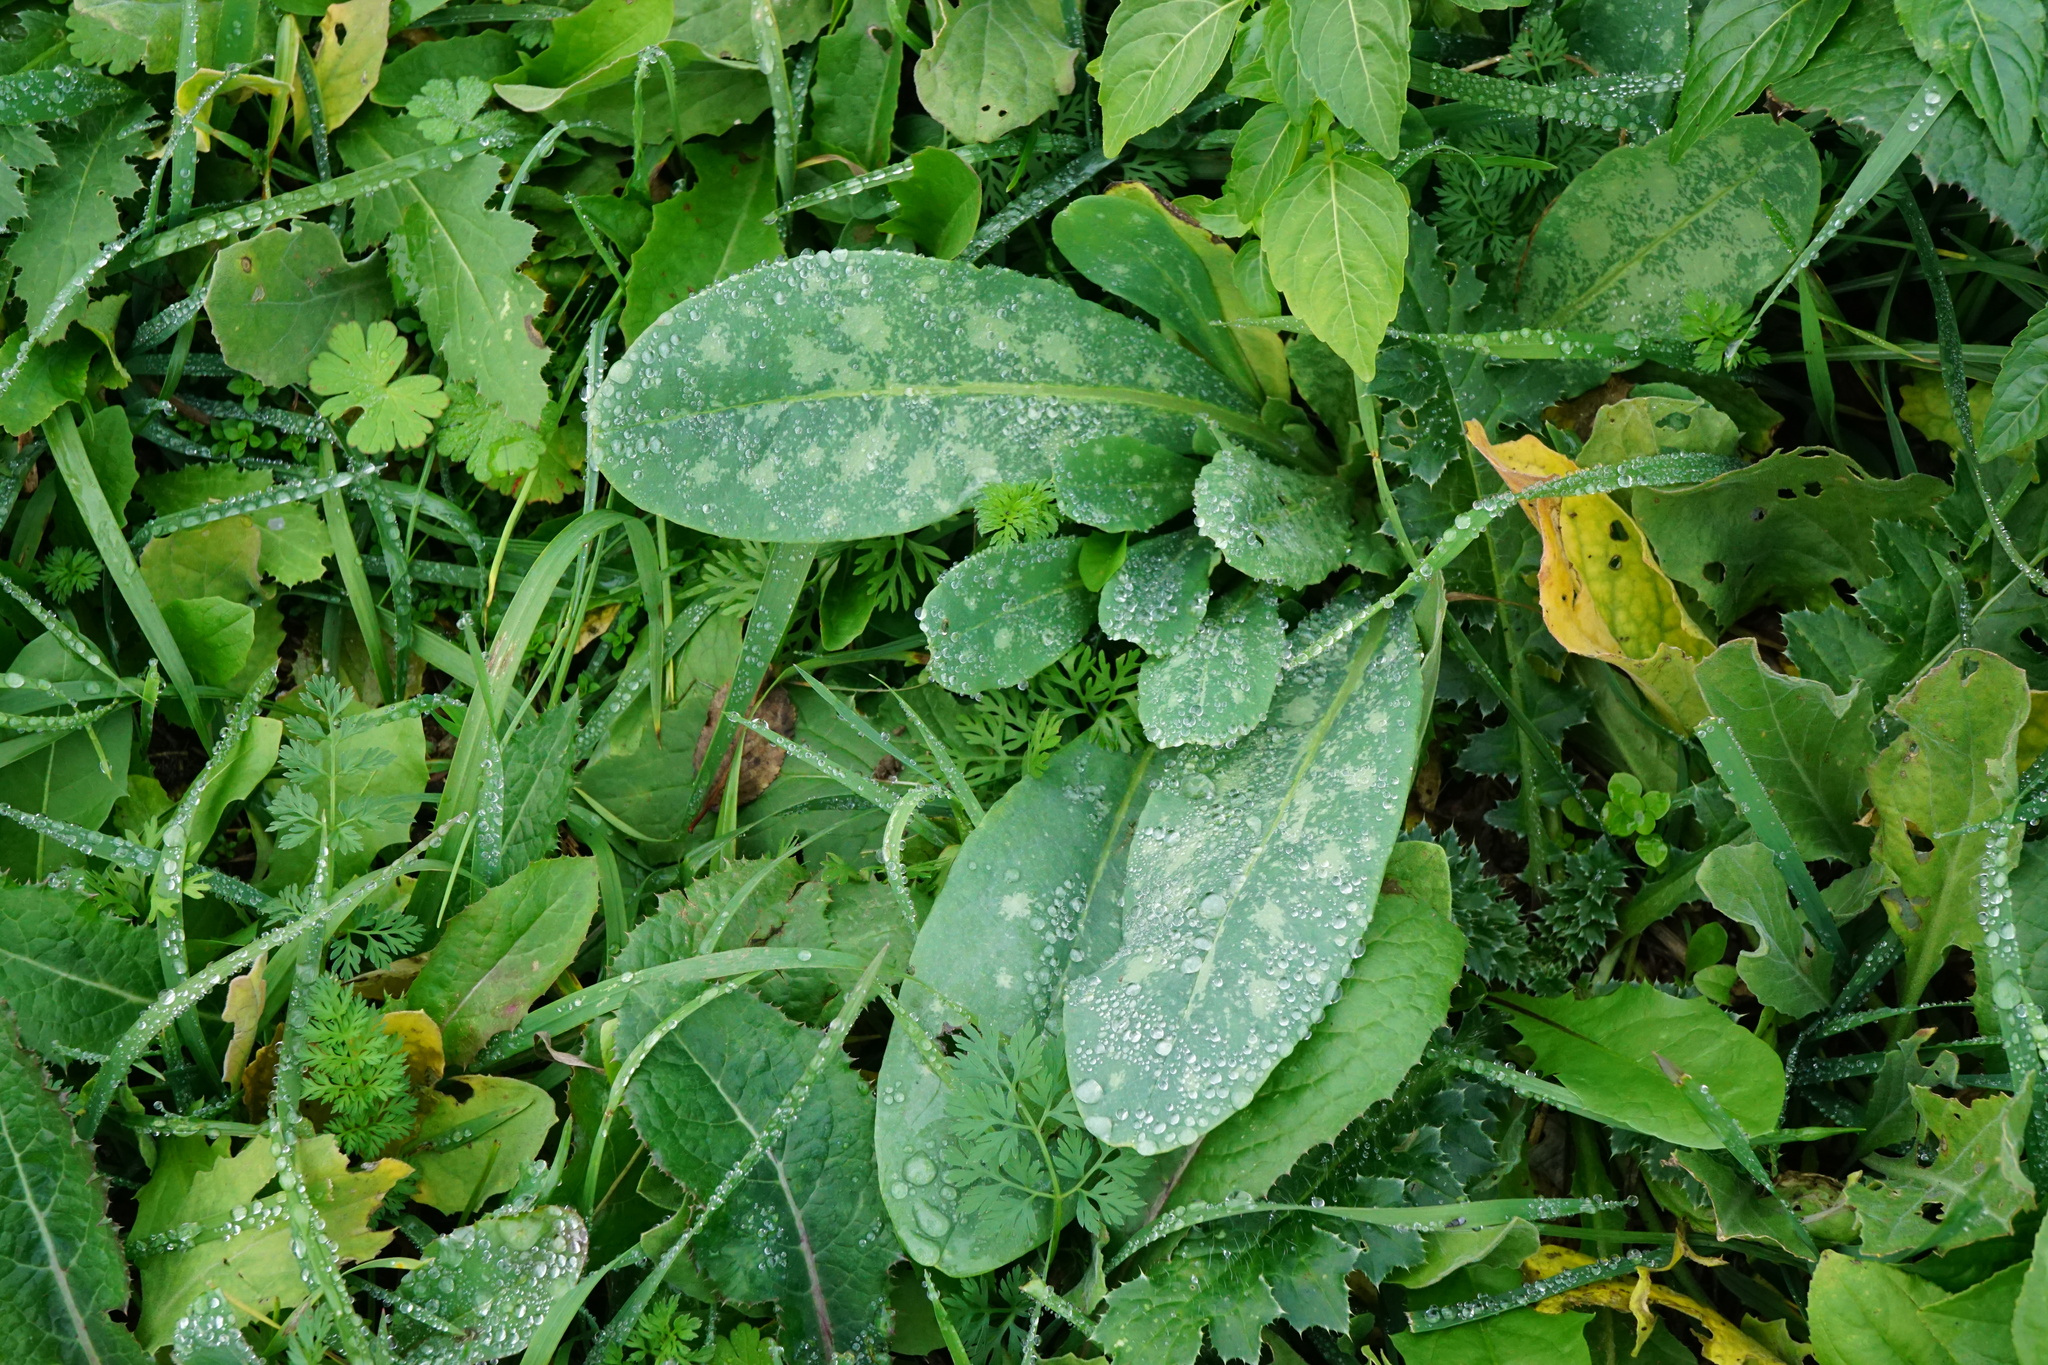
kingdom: Plantae
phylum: Tracheophyta
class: Magnoliopsida
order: Boraginales
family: Boraginaceae
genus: Cerinthe
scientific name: Cerinthe minor
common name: Lesser honeywort
